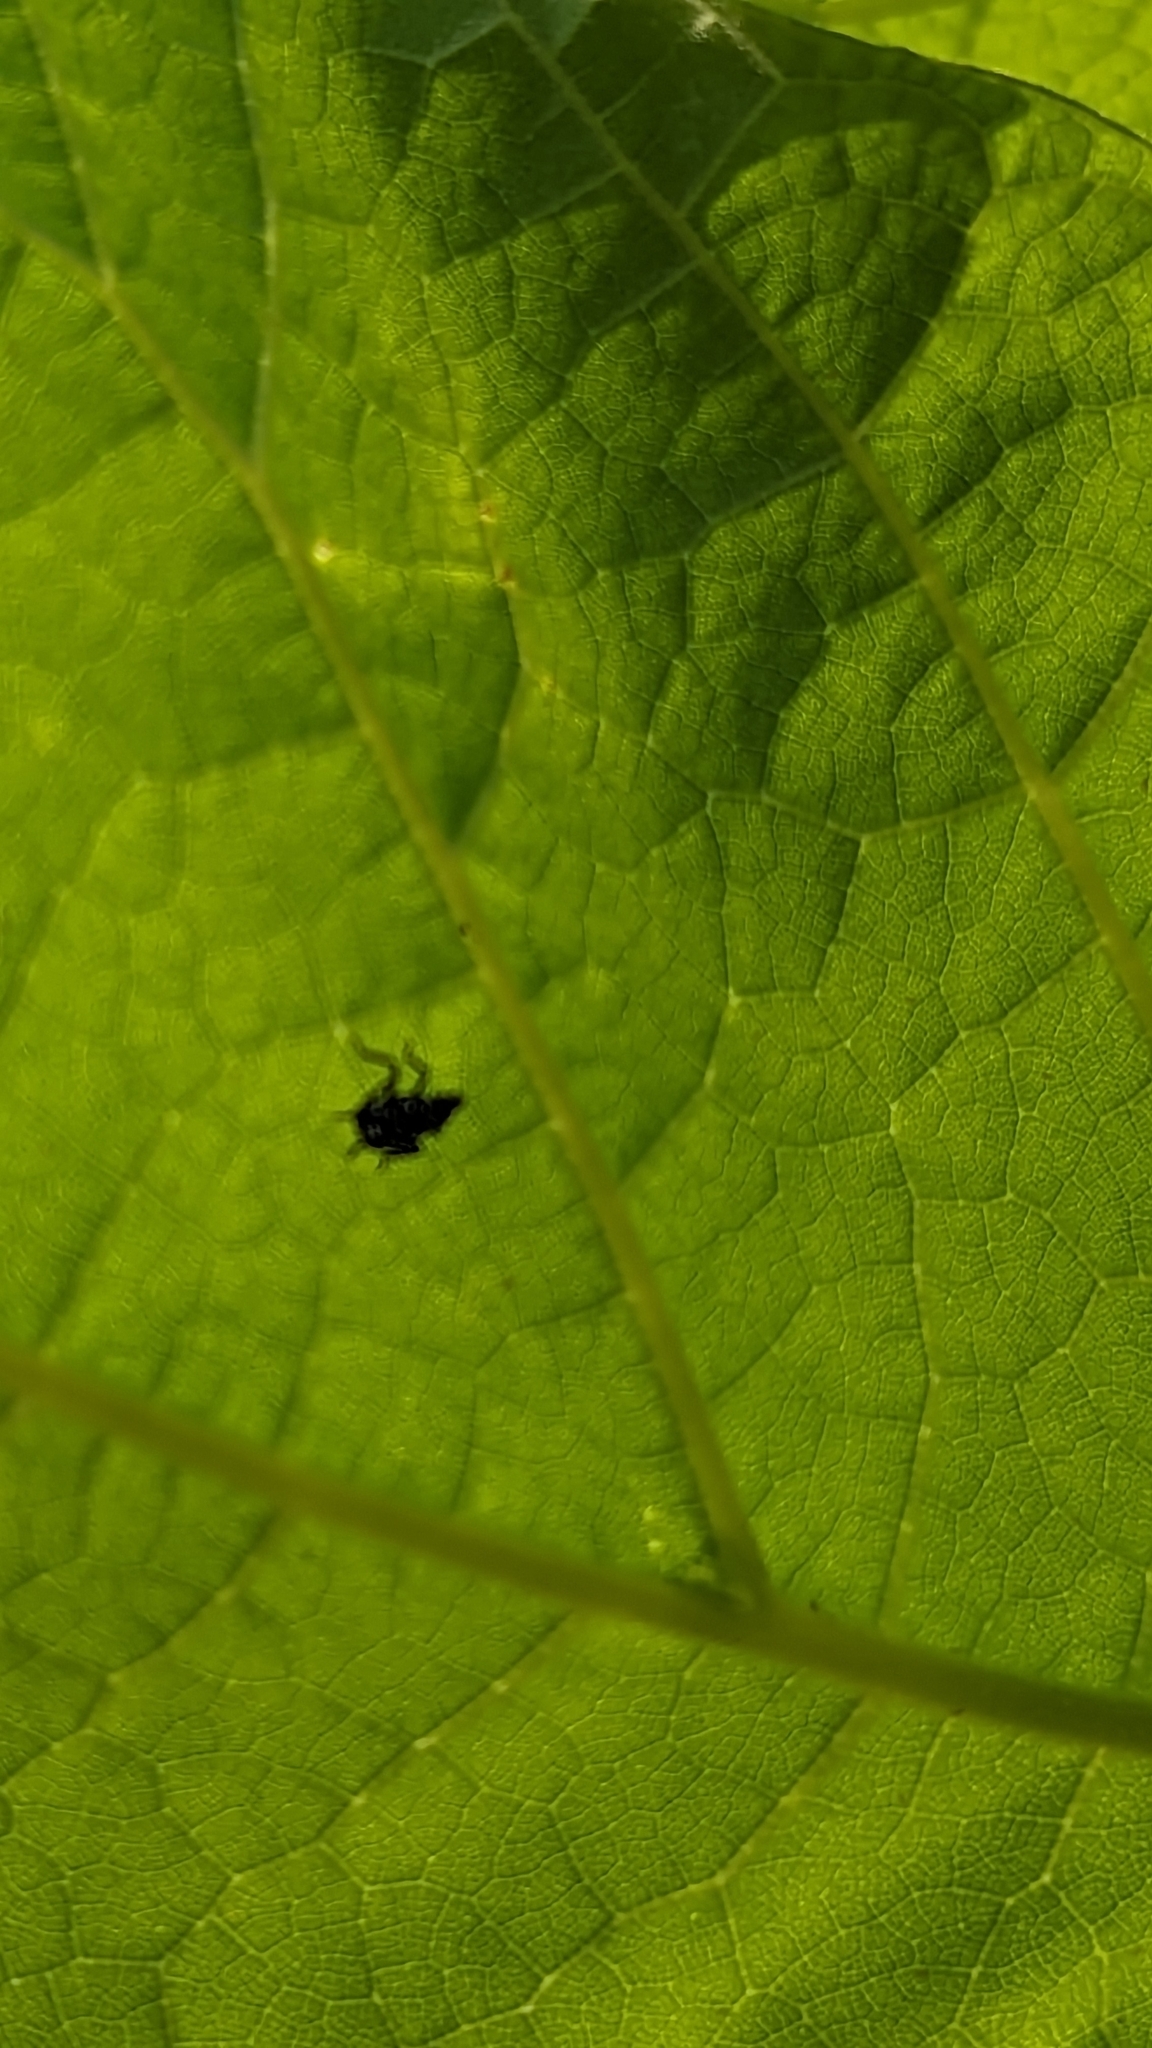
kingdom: Animalia
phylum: Arthropoda
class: Insecta
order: Hemiptera
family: Fulgoridae
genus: Lycorma
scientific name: Lycorma delicatula
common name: Spotted lanternfly
